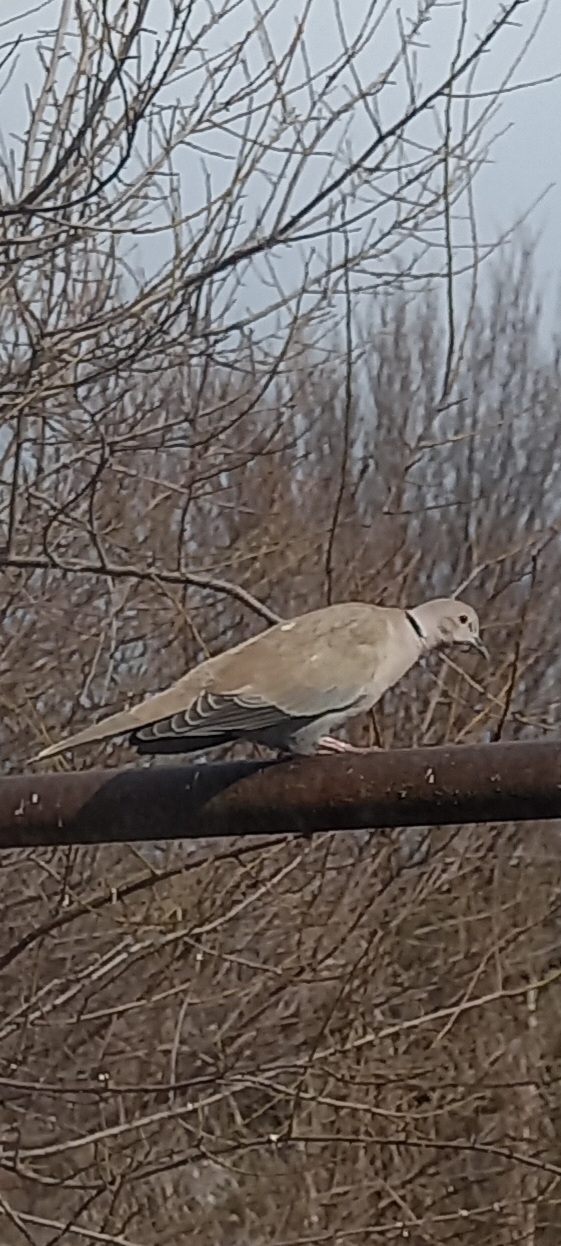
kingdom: Animalia
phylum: Chordata
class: Aves
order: Columbiformes
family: Columbidae
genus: Streptopelia
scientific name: Streptopelia decaocto
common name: Eurasian collared dove
